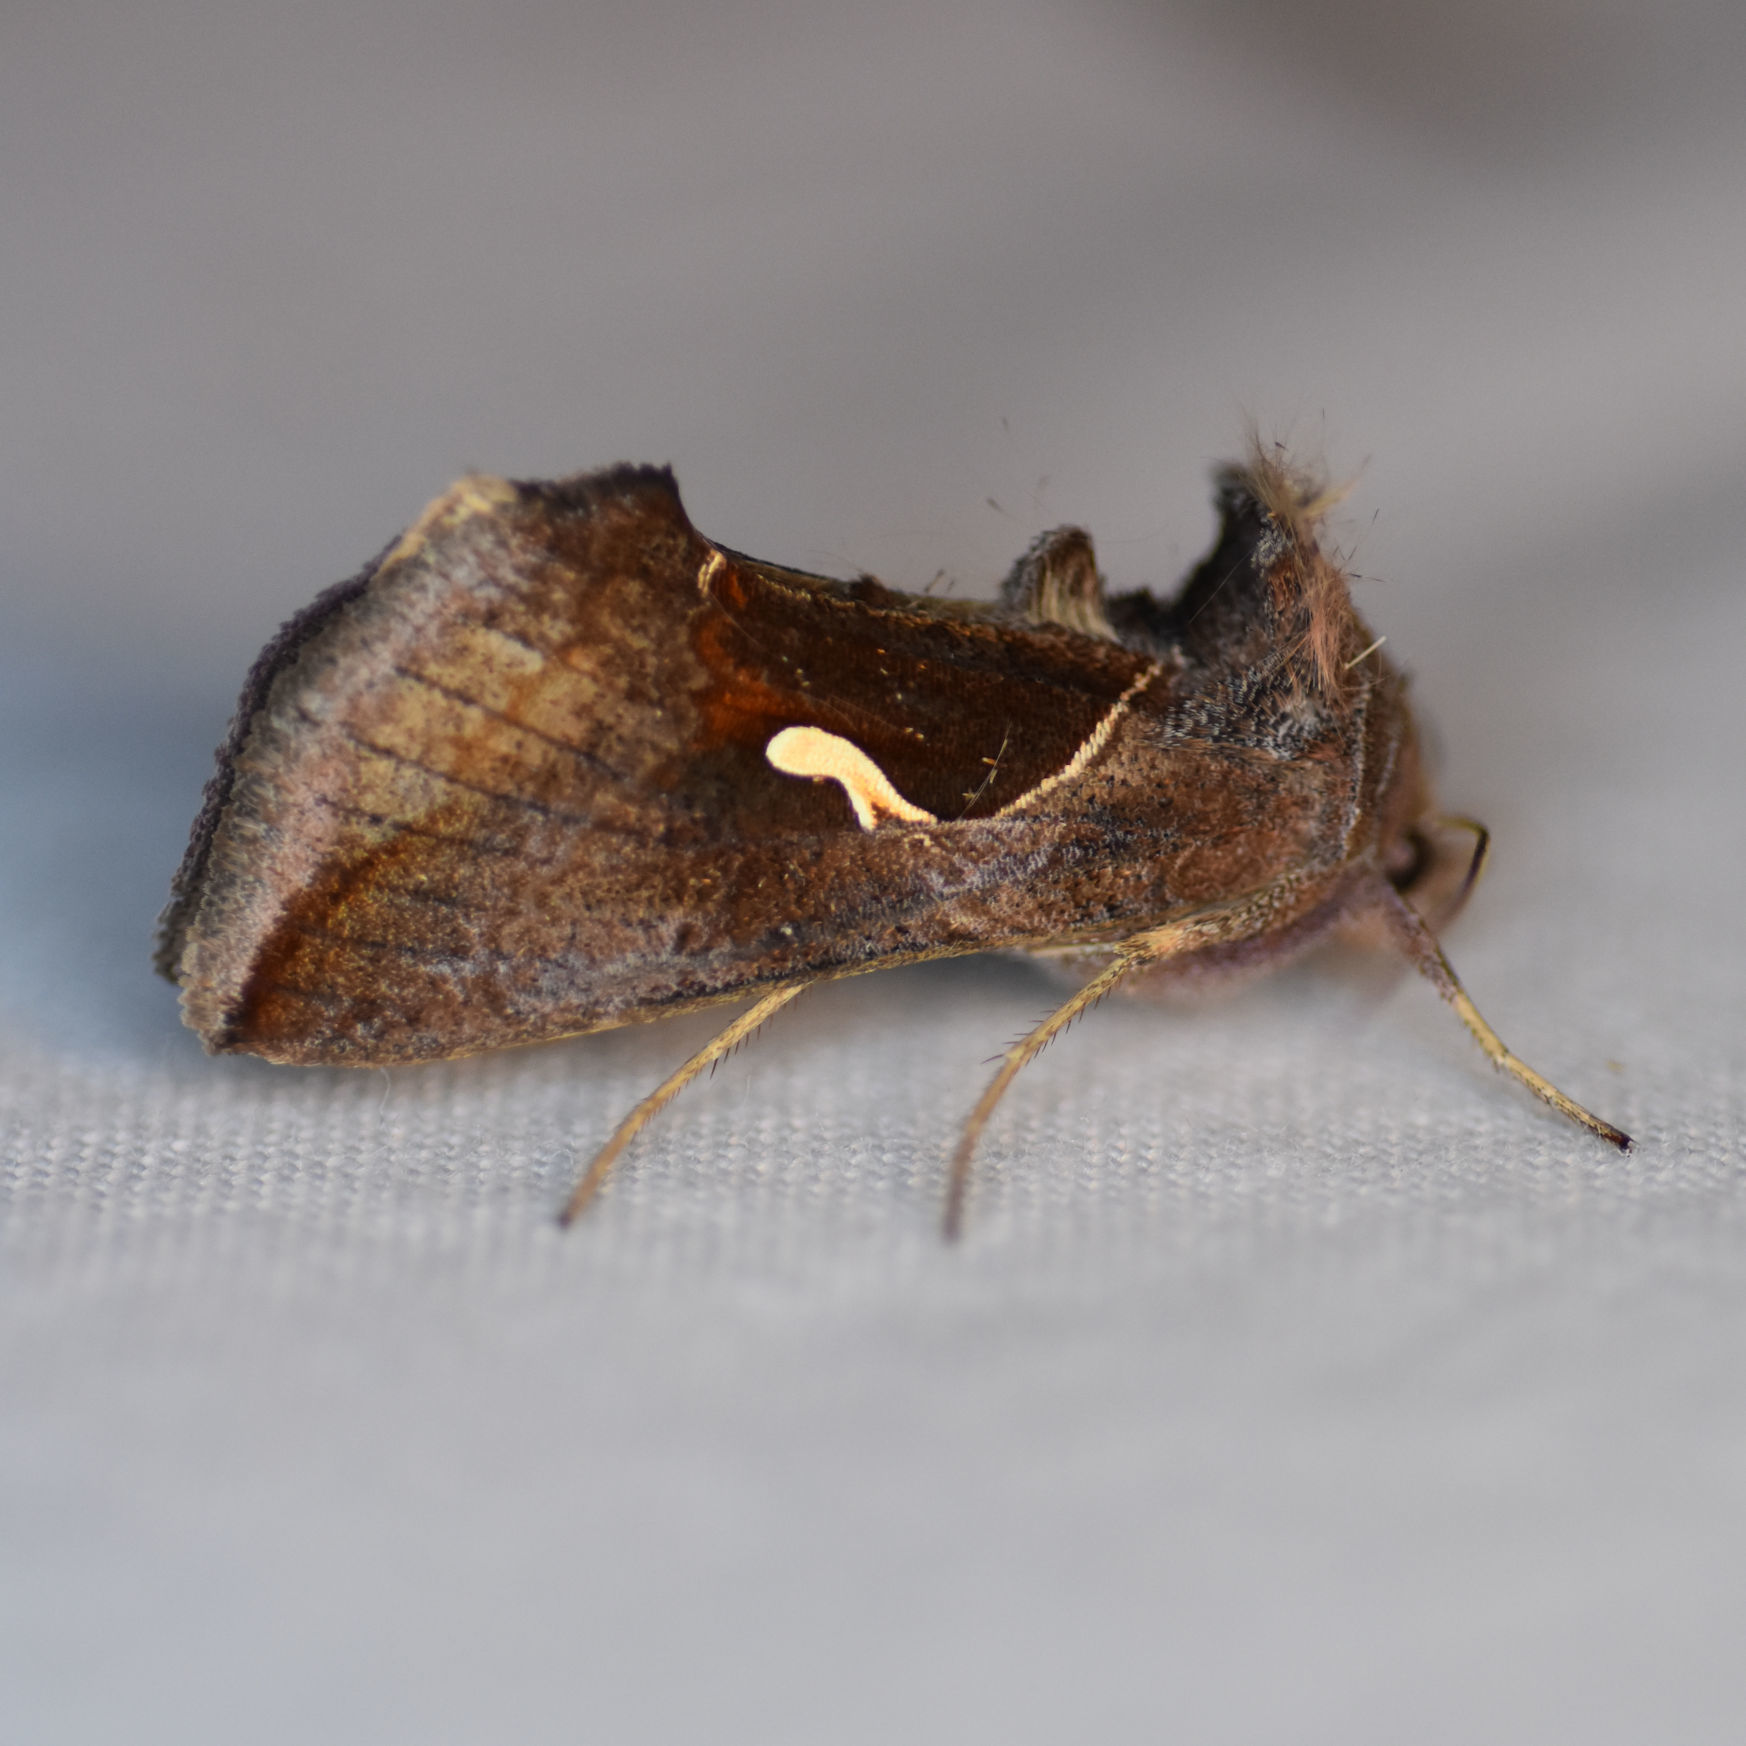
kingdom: Animalia
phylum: Arthropoda
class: Insecta
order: Lepidoptera
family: Noctuidae
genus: Anagrapha
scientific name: Anagrapha falcifera
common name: Celery looper
